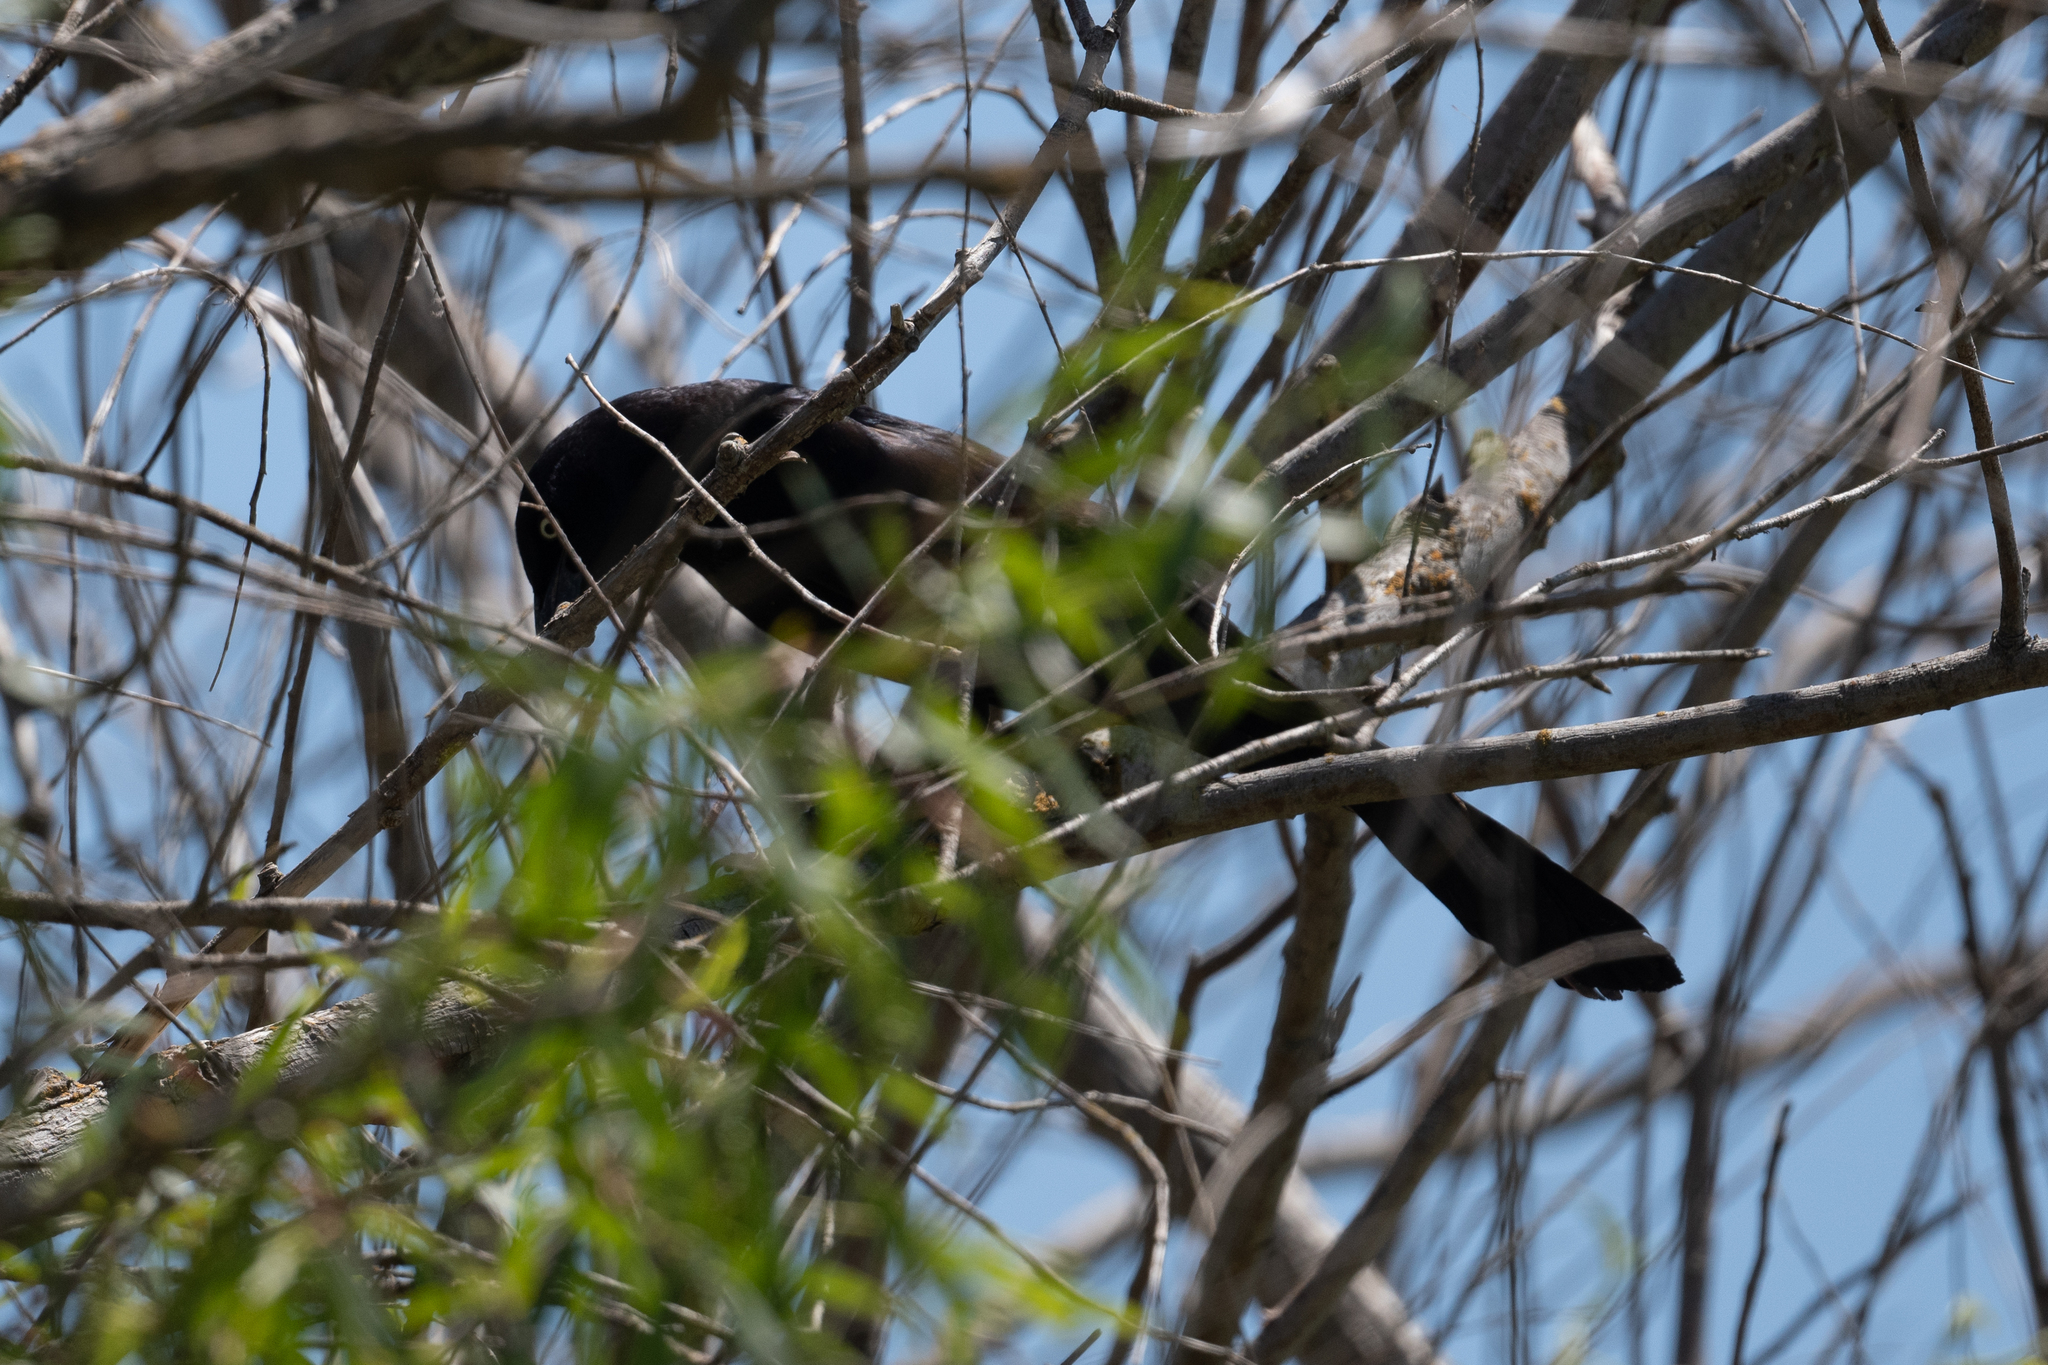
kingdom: Animalia
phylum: Chordata
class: Aves
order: Passeriformes
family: Icteridae
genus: Quiscalus
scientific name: Quiscalus mexicanus
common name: Great-tailed grackle
